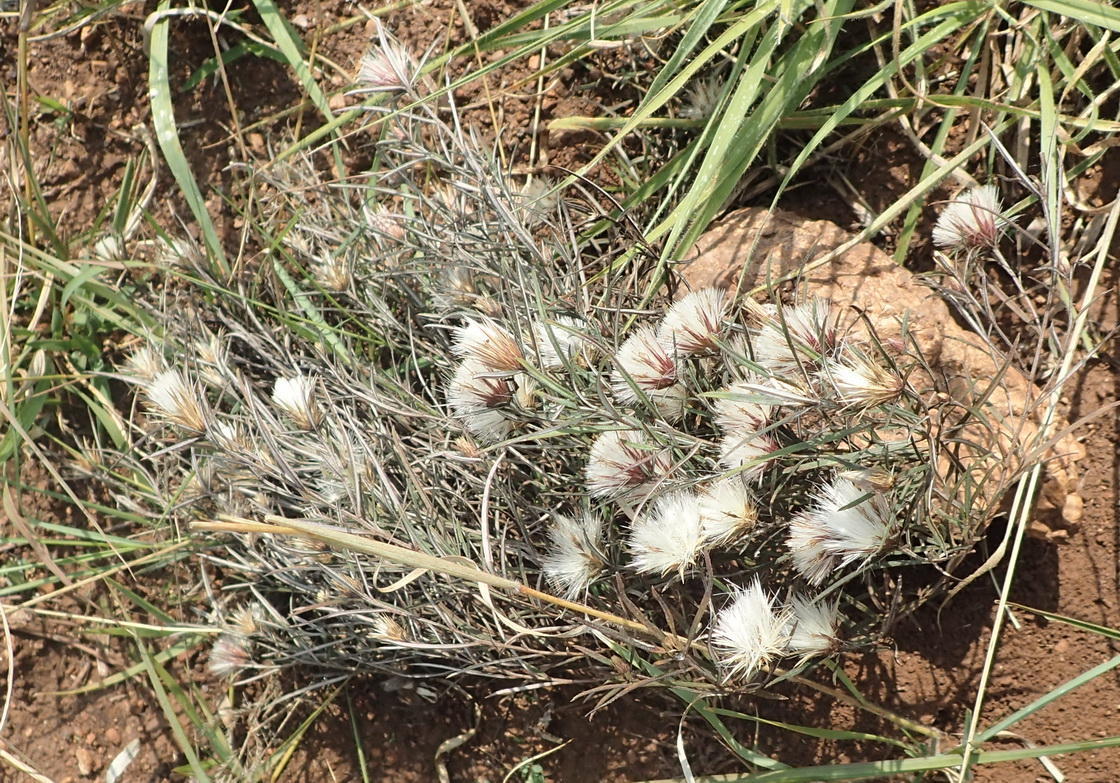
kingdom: Plantae
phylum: Tracheophyta
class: Magnoliopsida
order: Asterales
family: Asteraceae
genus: Dicoma
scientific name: Dicoma anomala
